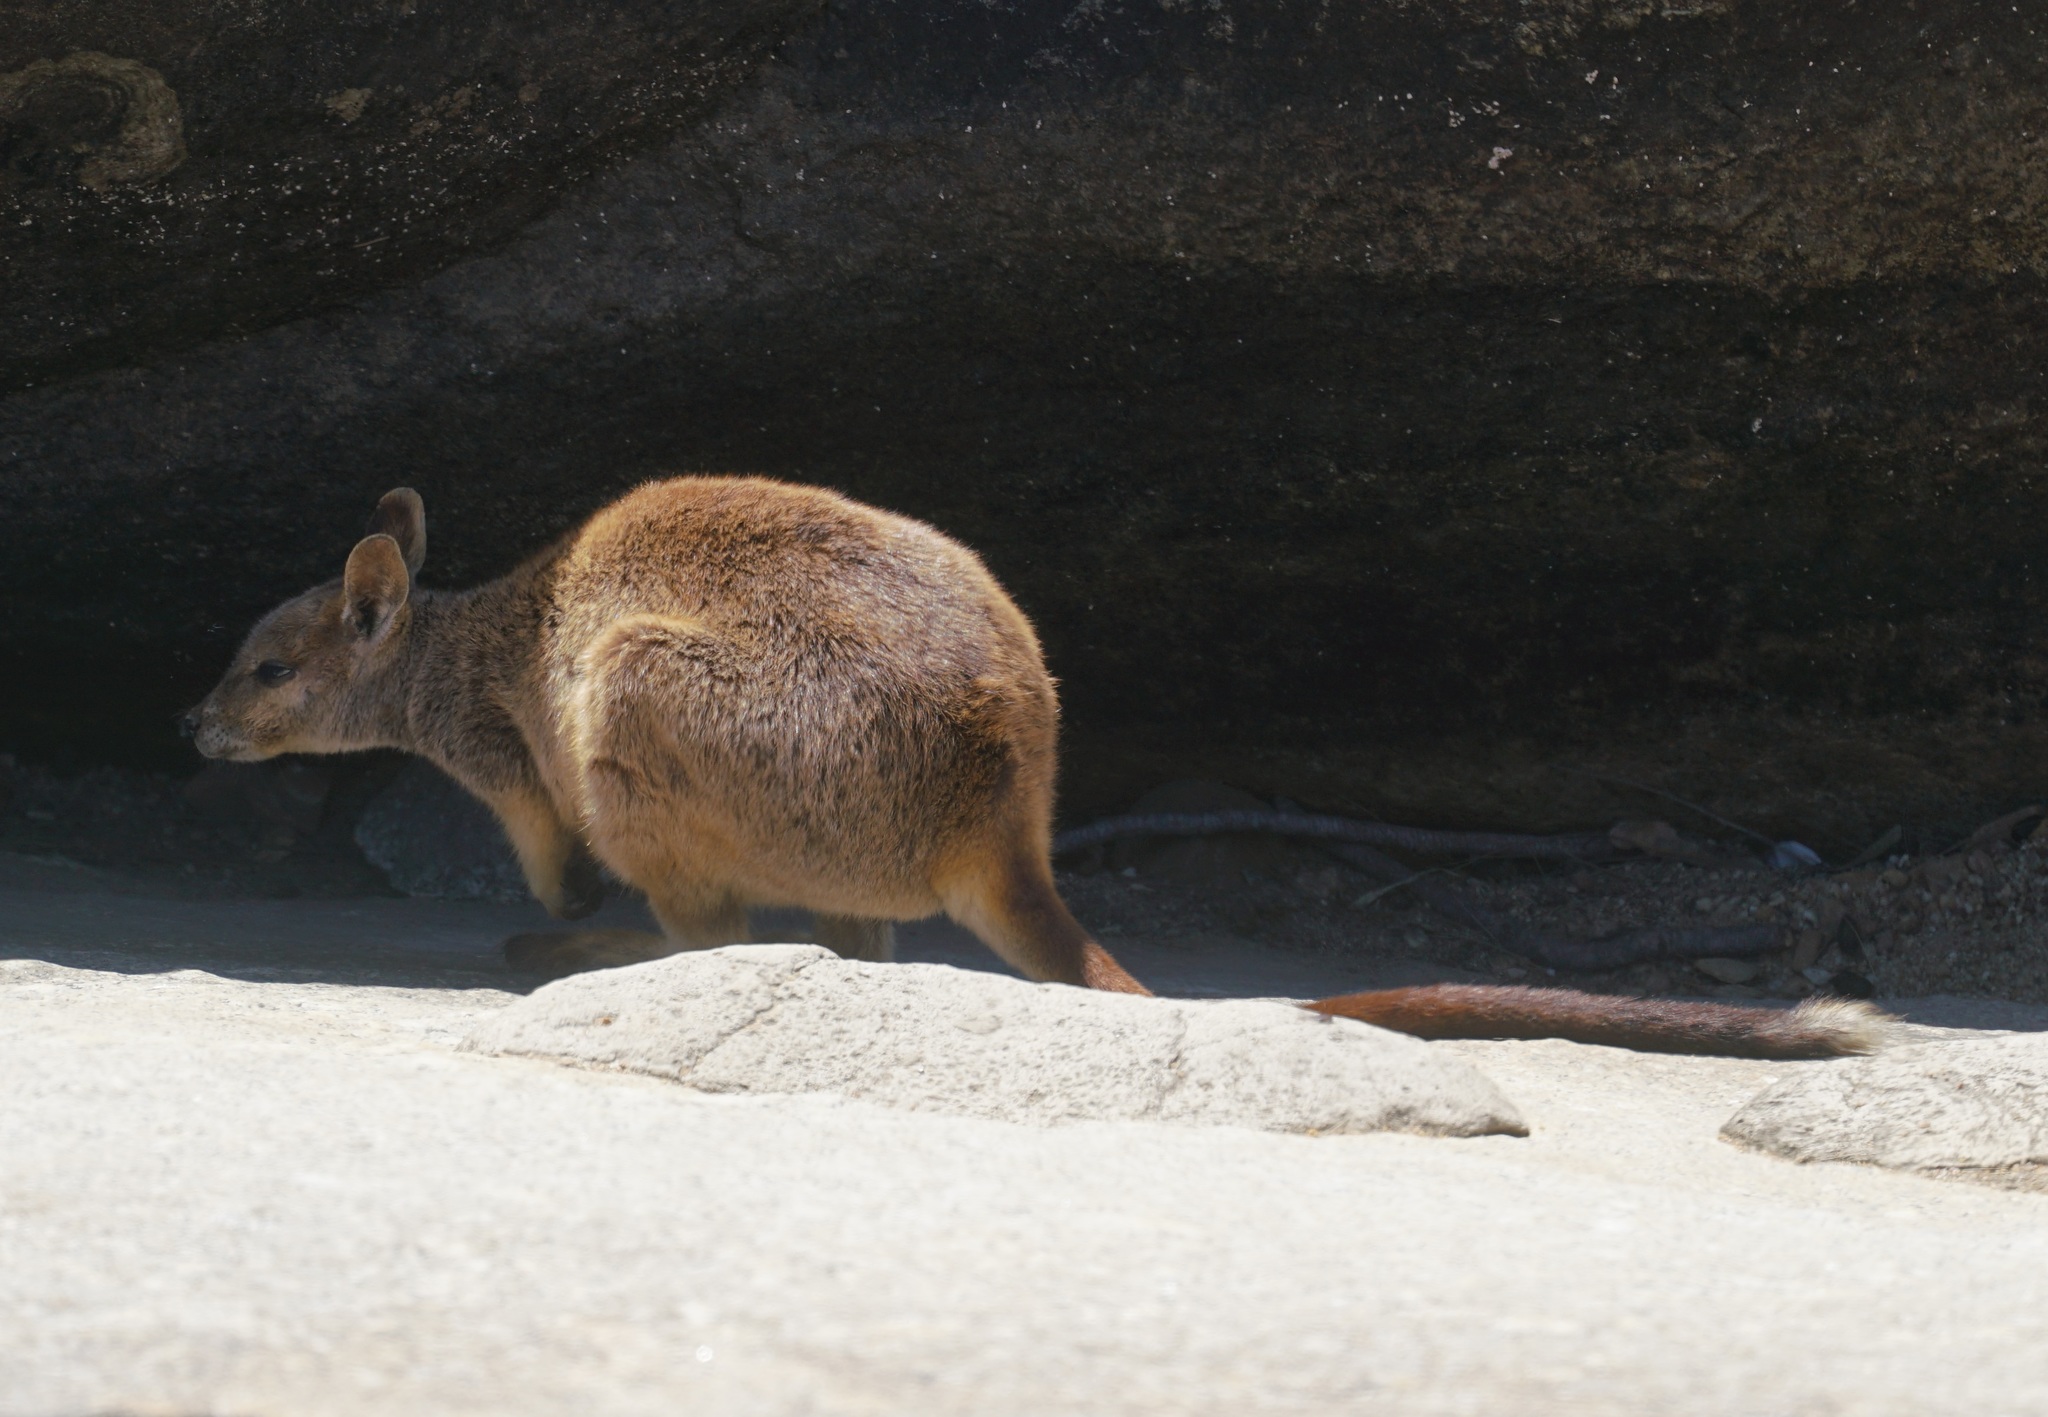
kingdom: Animalia
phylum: Chordata
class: Mammalia
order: Diprotodontia
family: Macropodidae
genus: Petrogale
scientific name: Petrogale mareeba
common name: Mareeba rock-wallaby
